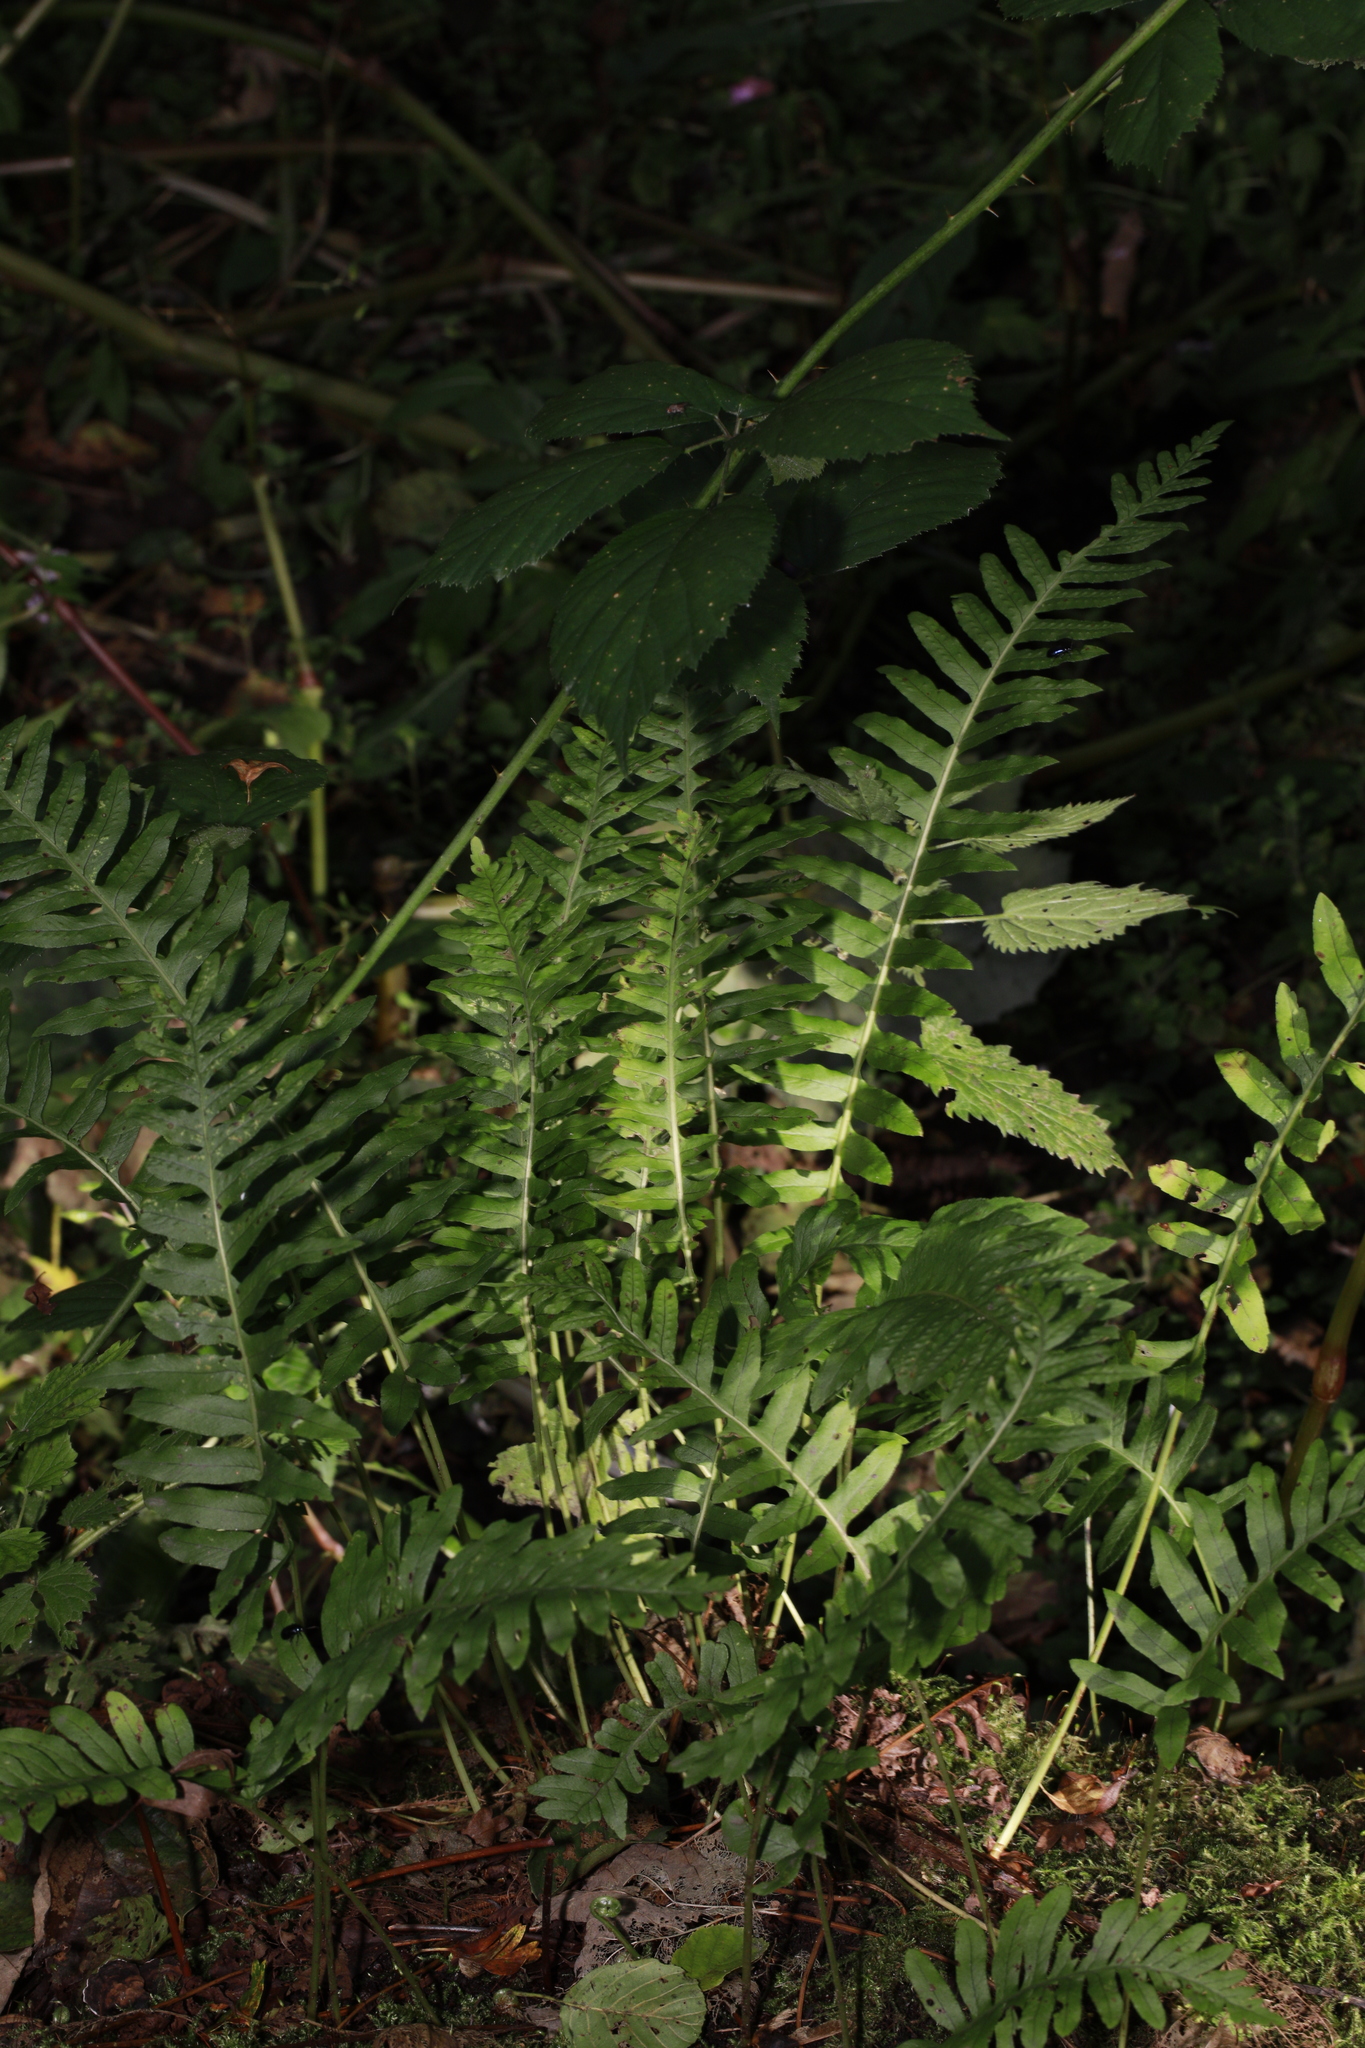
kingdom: Plantae
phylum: Tracheophyta
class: Polypodiopsida
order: Polypodiales
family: Polypodiaceae
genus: Polypodium
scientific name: Polypodium vulgare
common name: Common polypody
